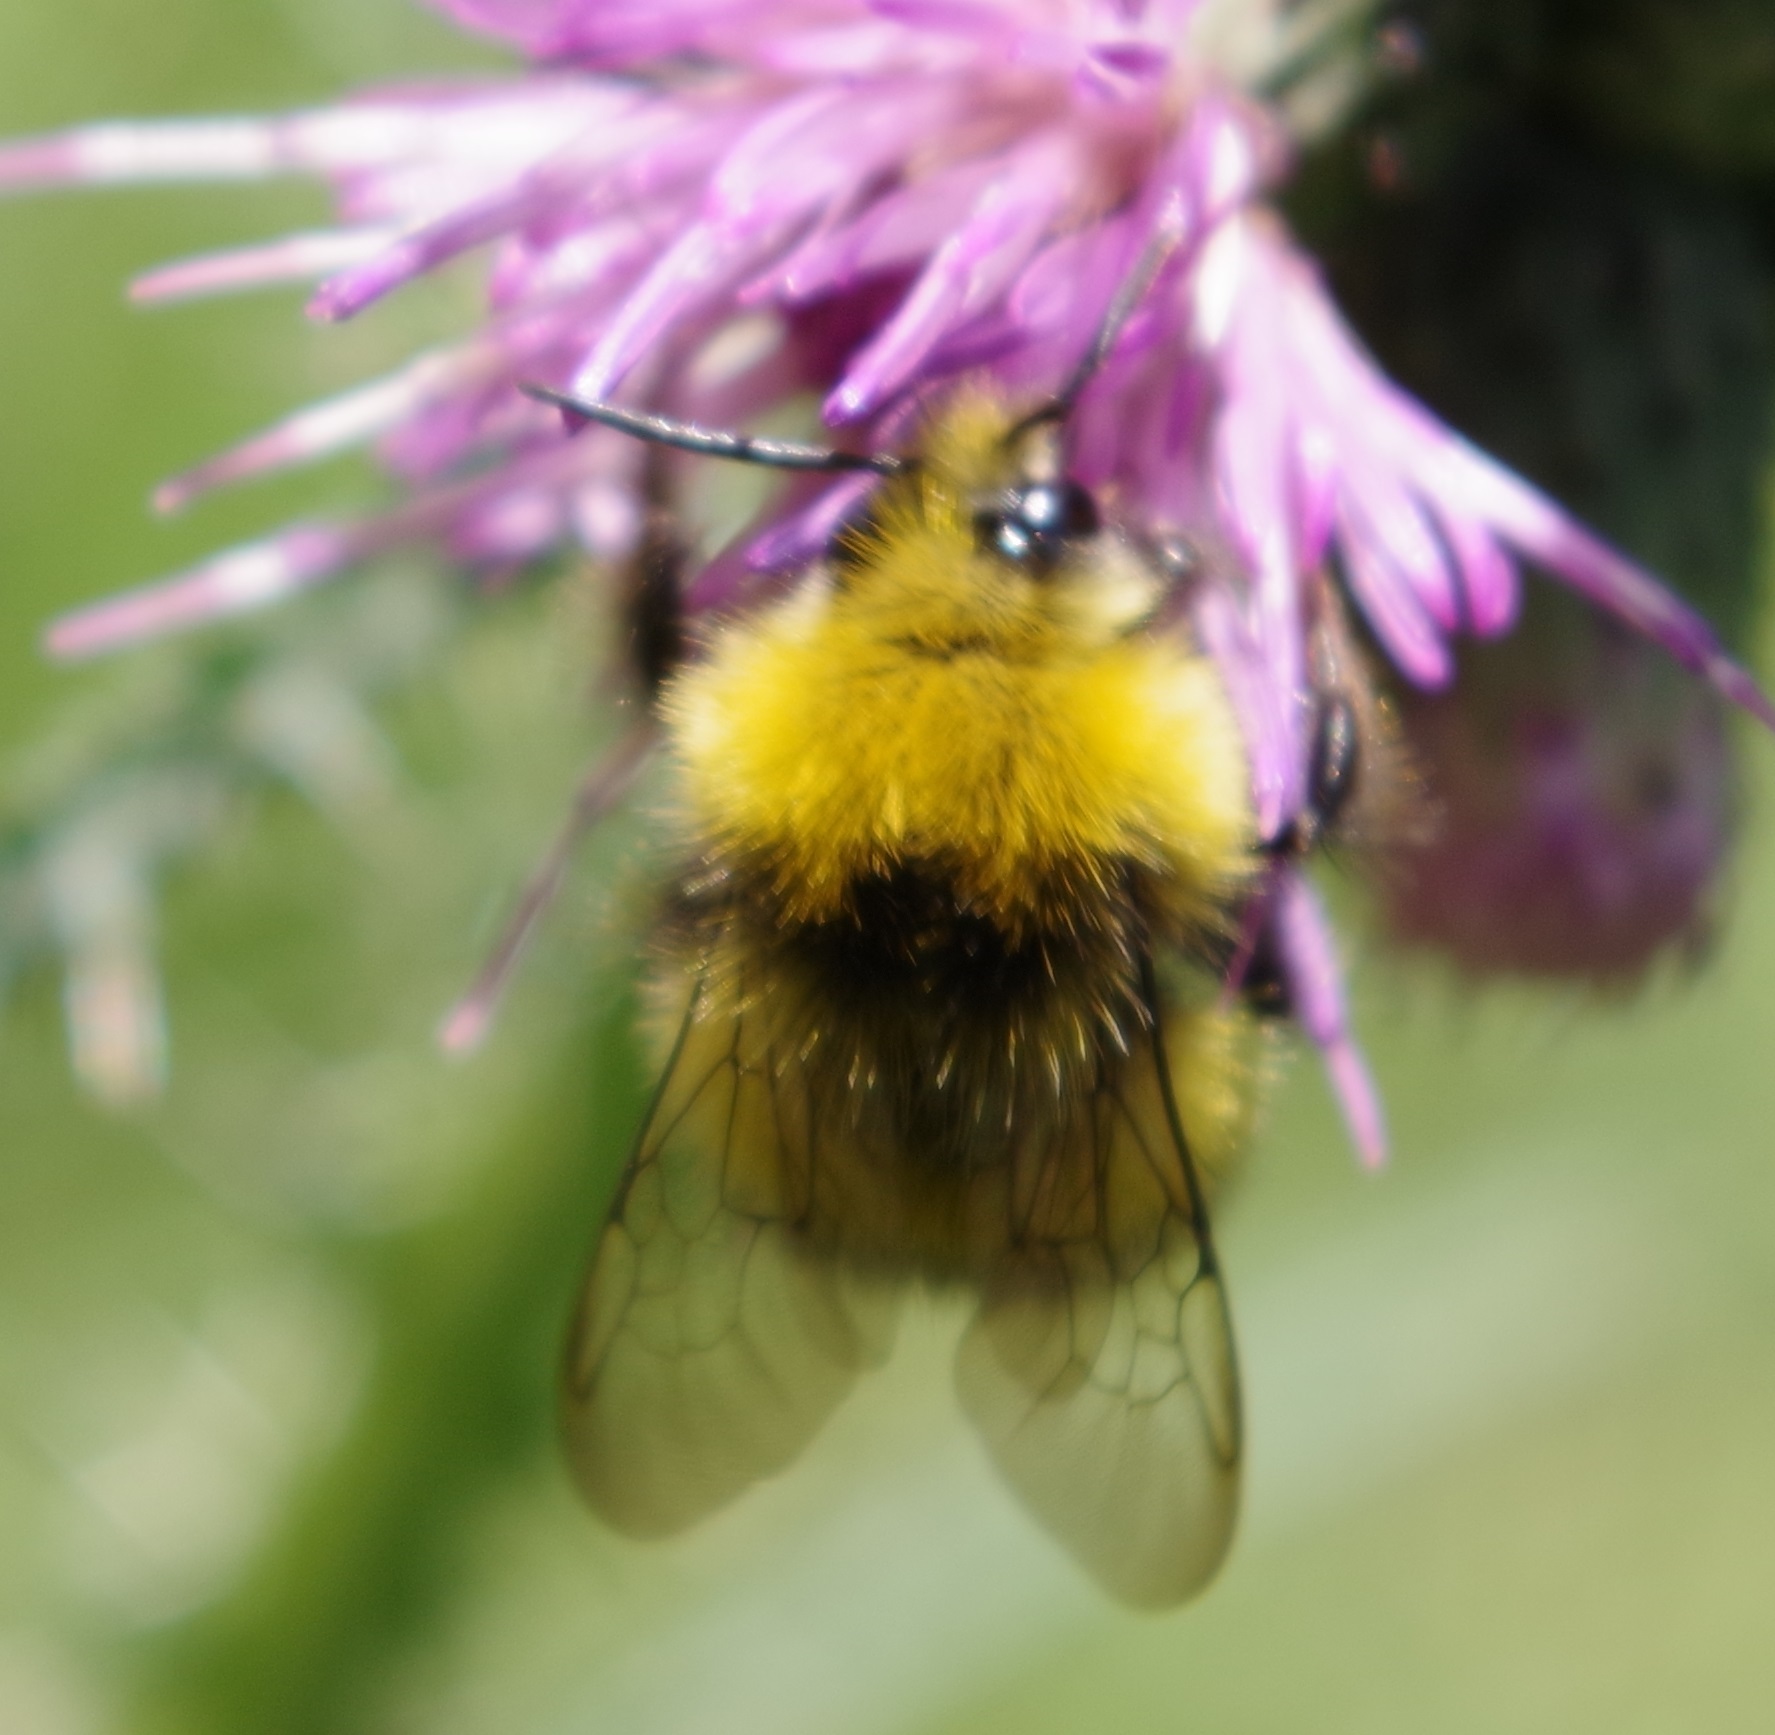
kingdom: Animalia
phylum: Arthropoda
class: Insecta
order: Hymenoptera
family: Apidae
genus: Bombus
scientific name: Bombus pratorum
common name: Early humble-bee
